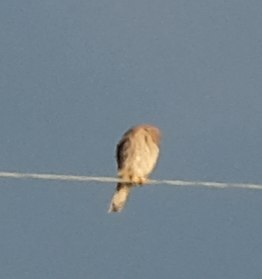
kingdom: Animalia
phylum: Chordata
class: Aves
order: Falconiformes
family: Falconidae
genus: Falco
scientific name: Falco tinnunculus
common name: Common kestrel
